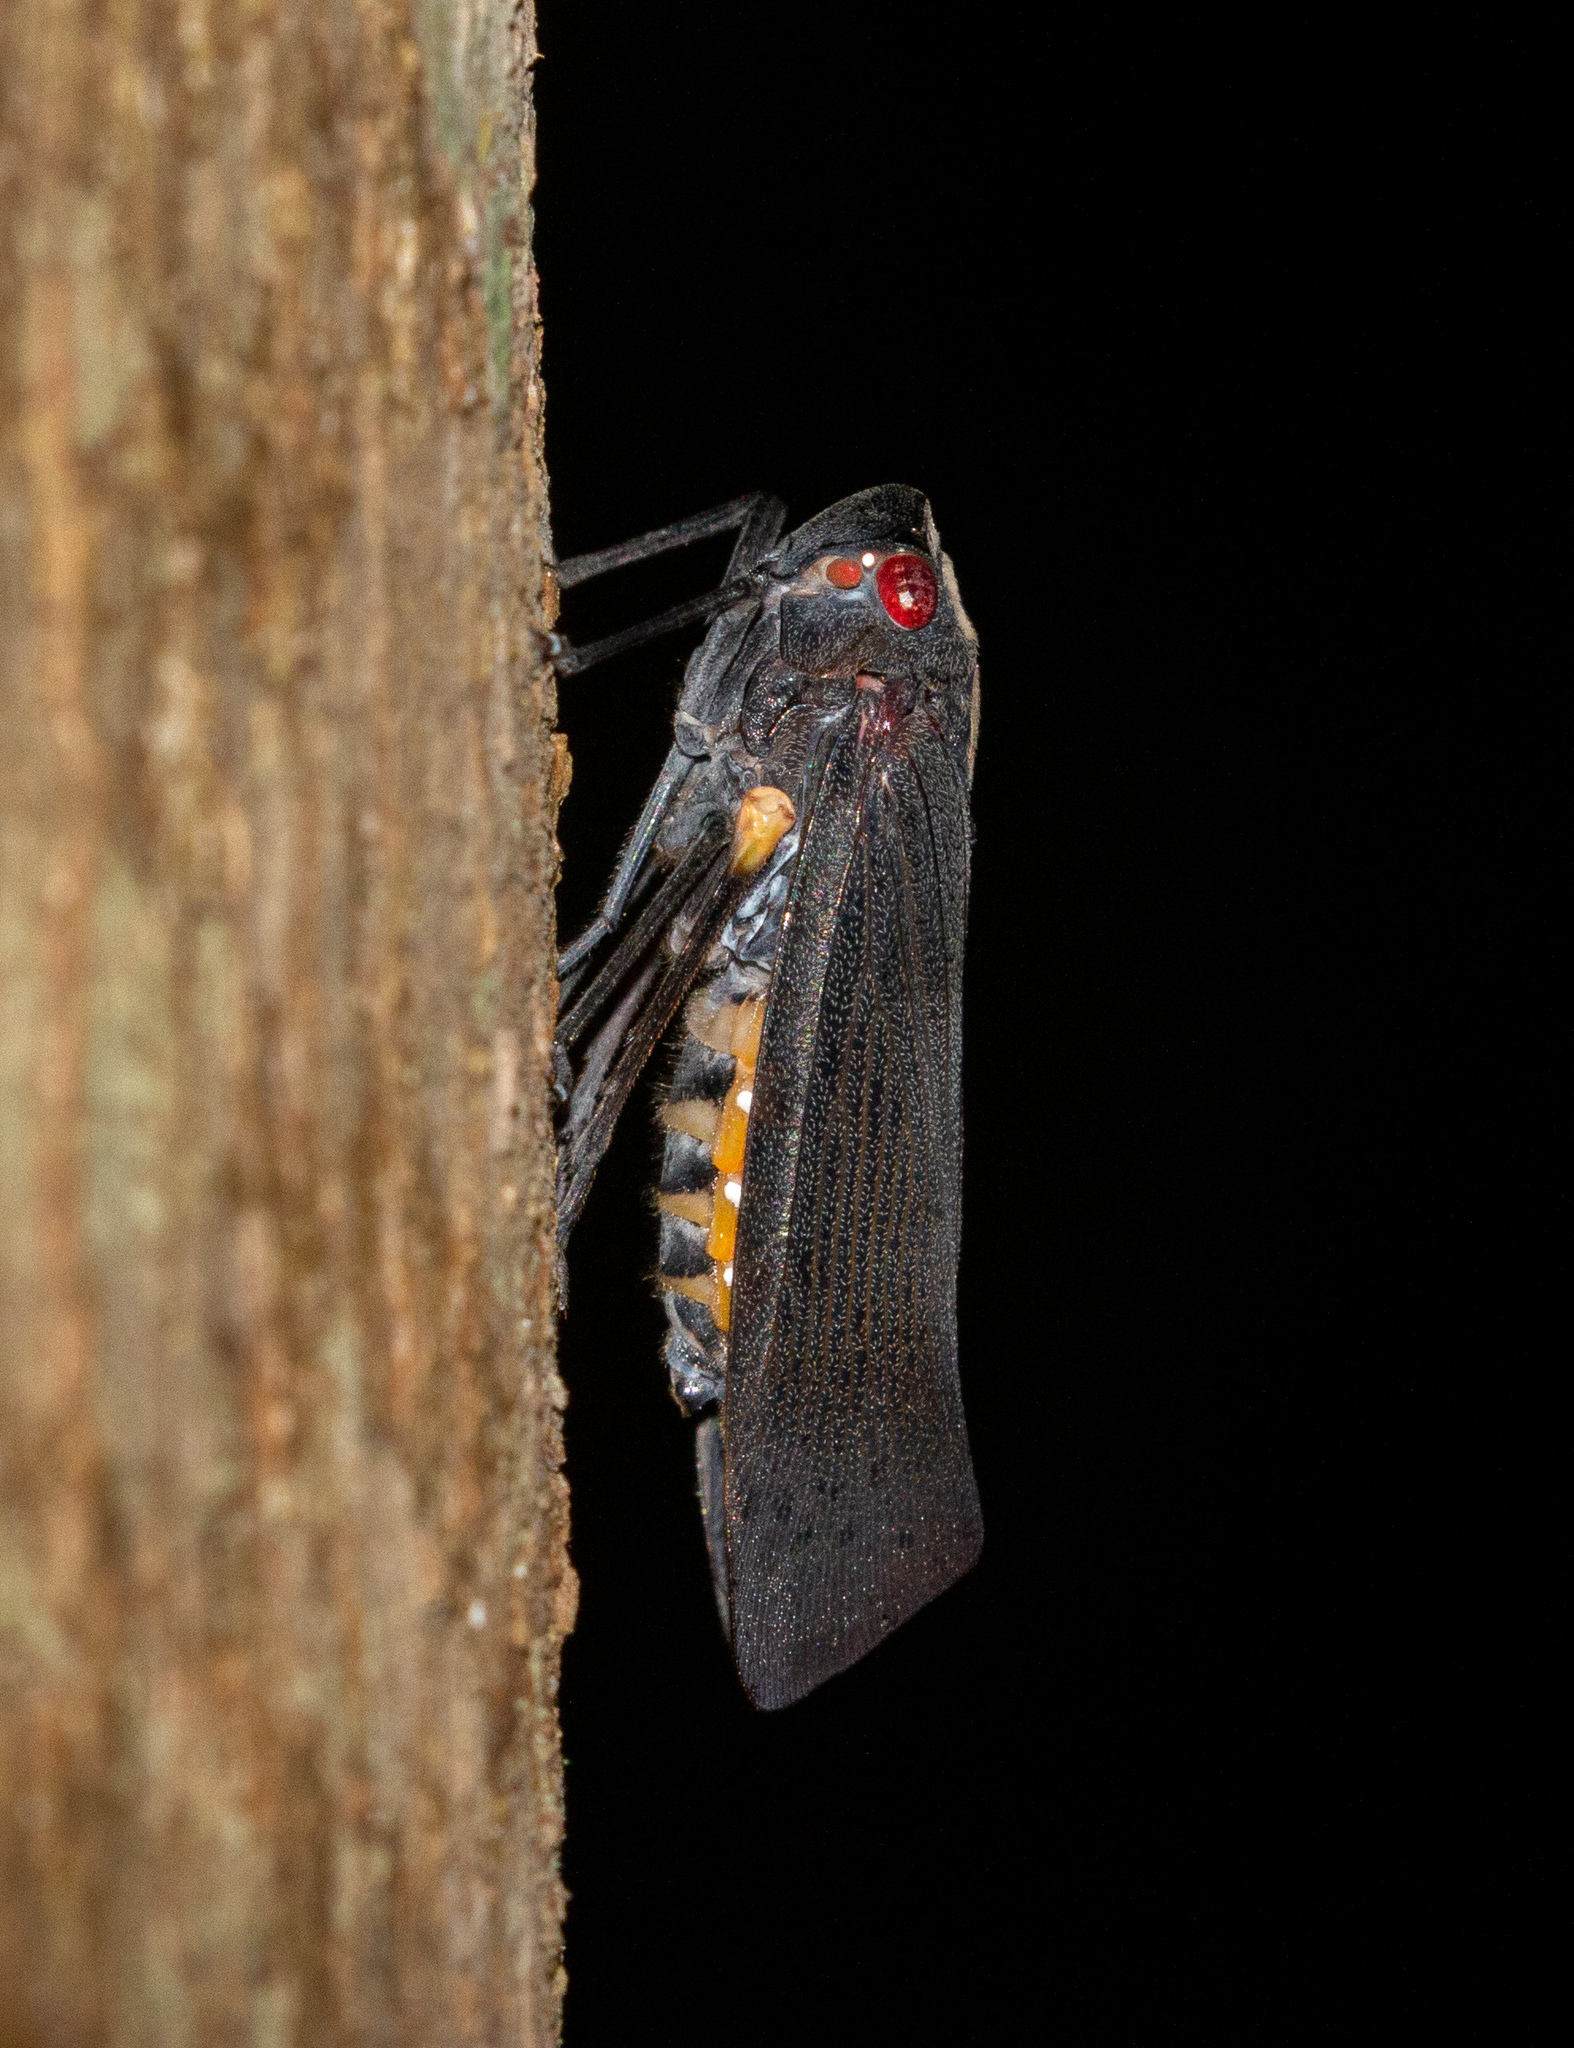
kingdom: Animalia
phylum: Arthropoda
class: Insecta
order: Hemiptera
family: Fulgoridae
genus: Acraephia
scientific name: Acraephia perspicillata
